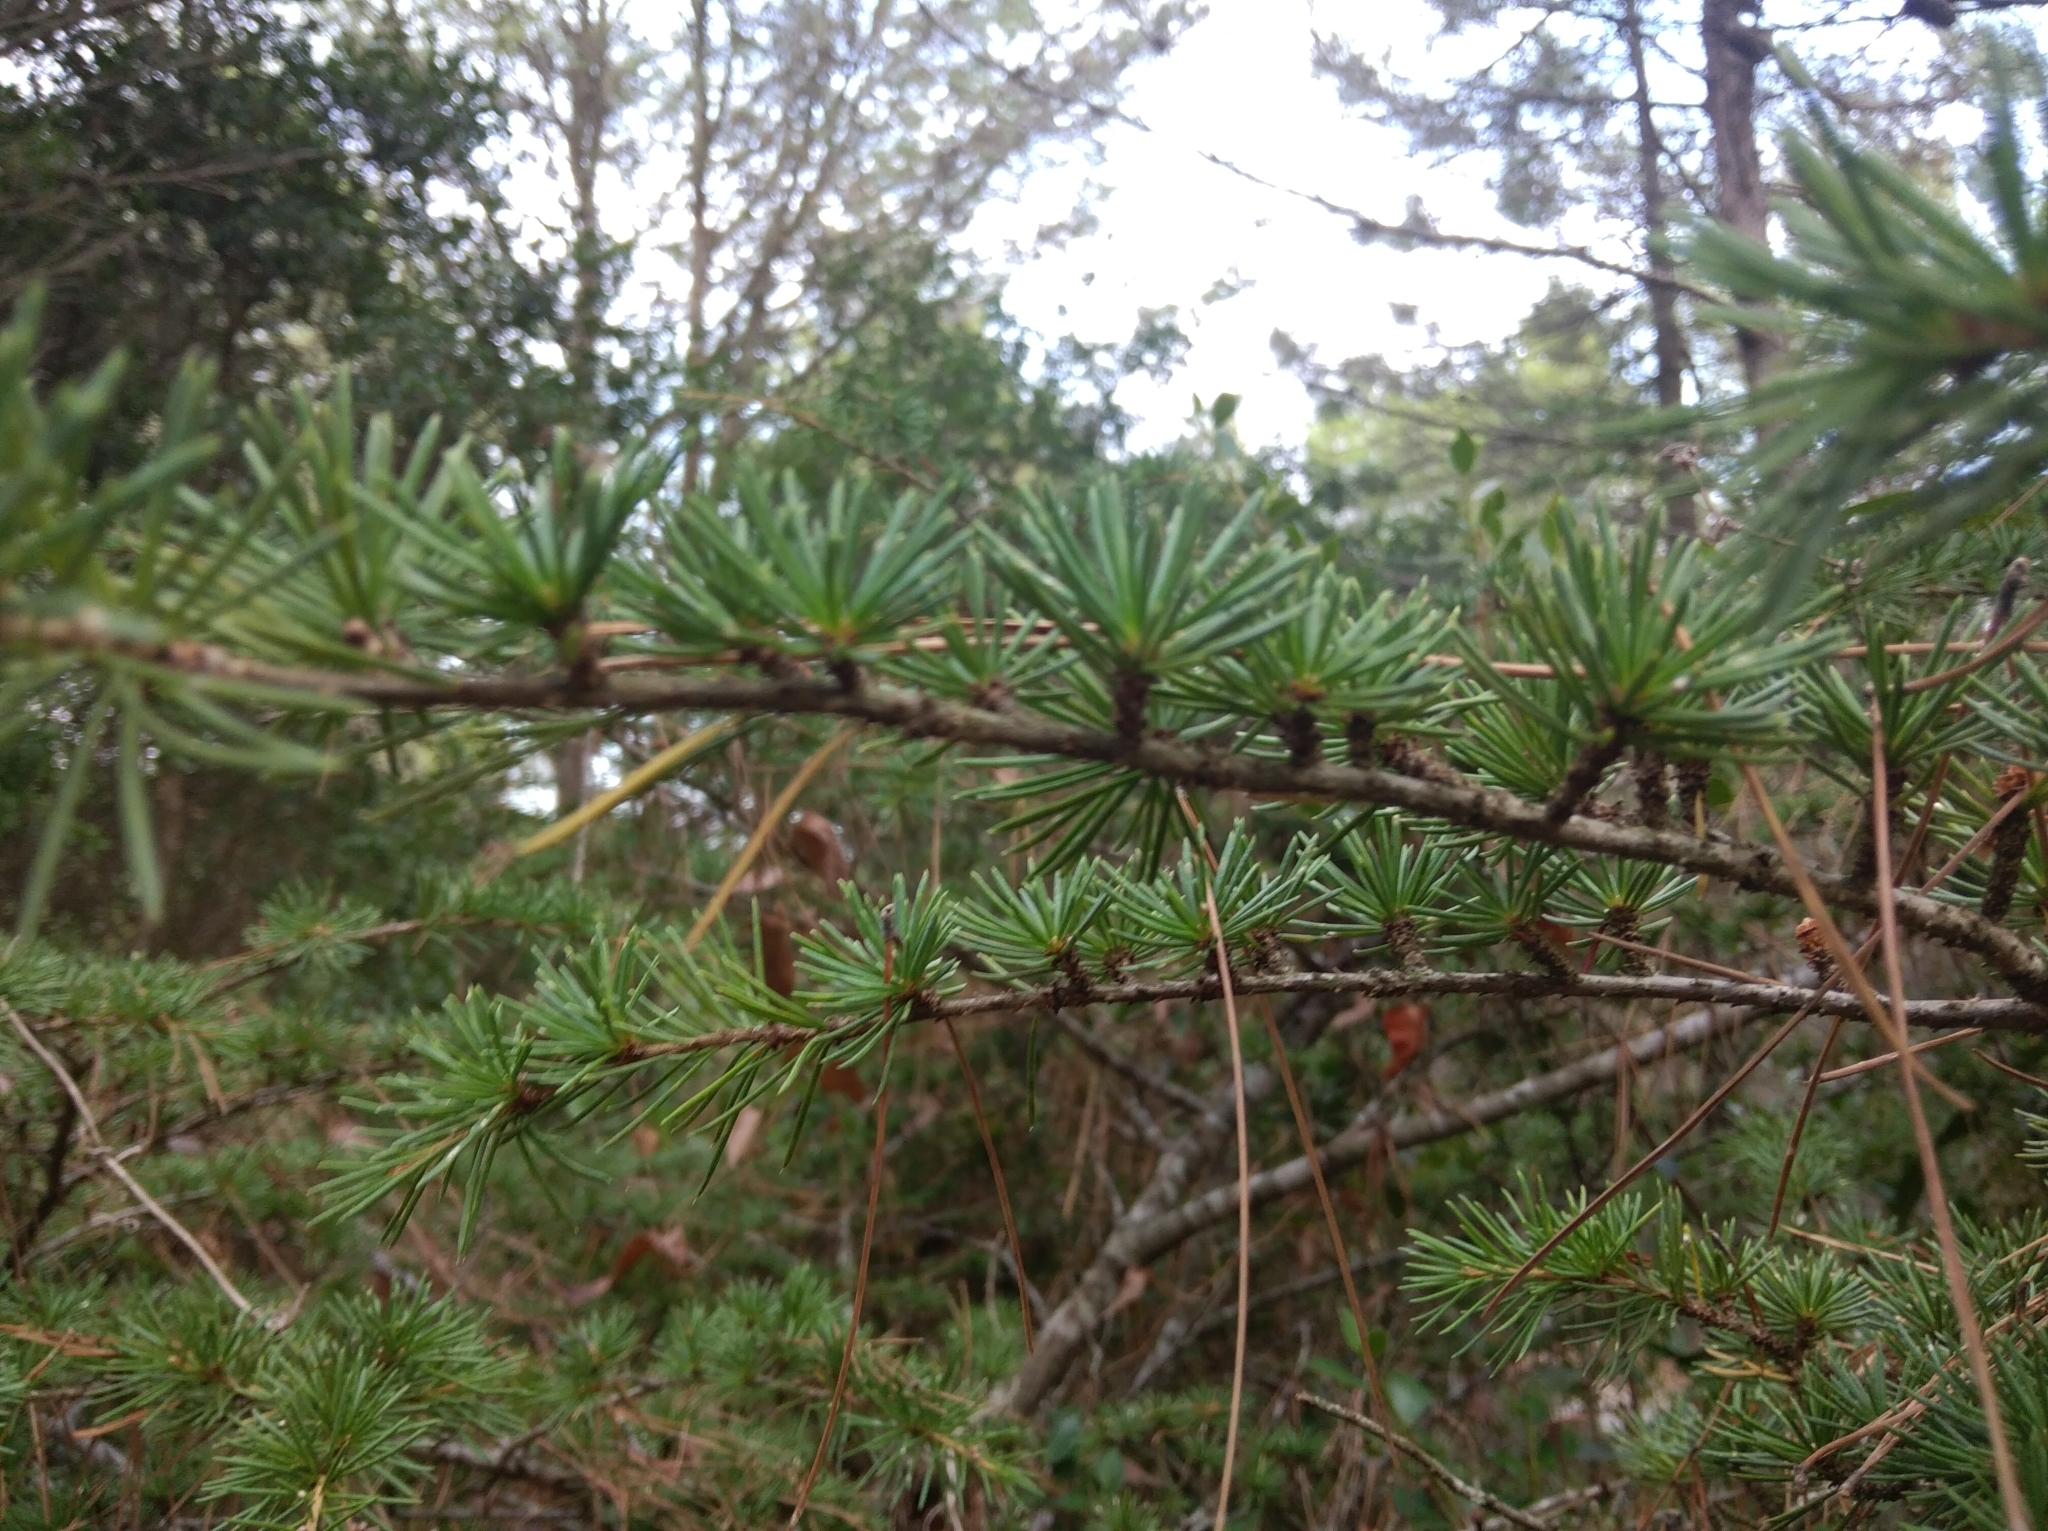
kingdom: Plantae
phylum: Tracheophyta
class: Pinopsida
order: Pinales
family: Pinaceae
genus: Cedrus
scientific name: Cedrus atlantica
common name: Atlas cedar
